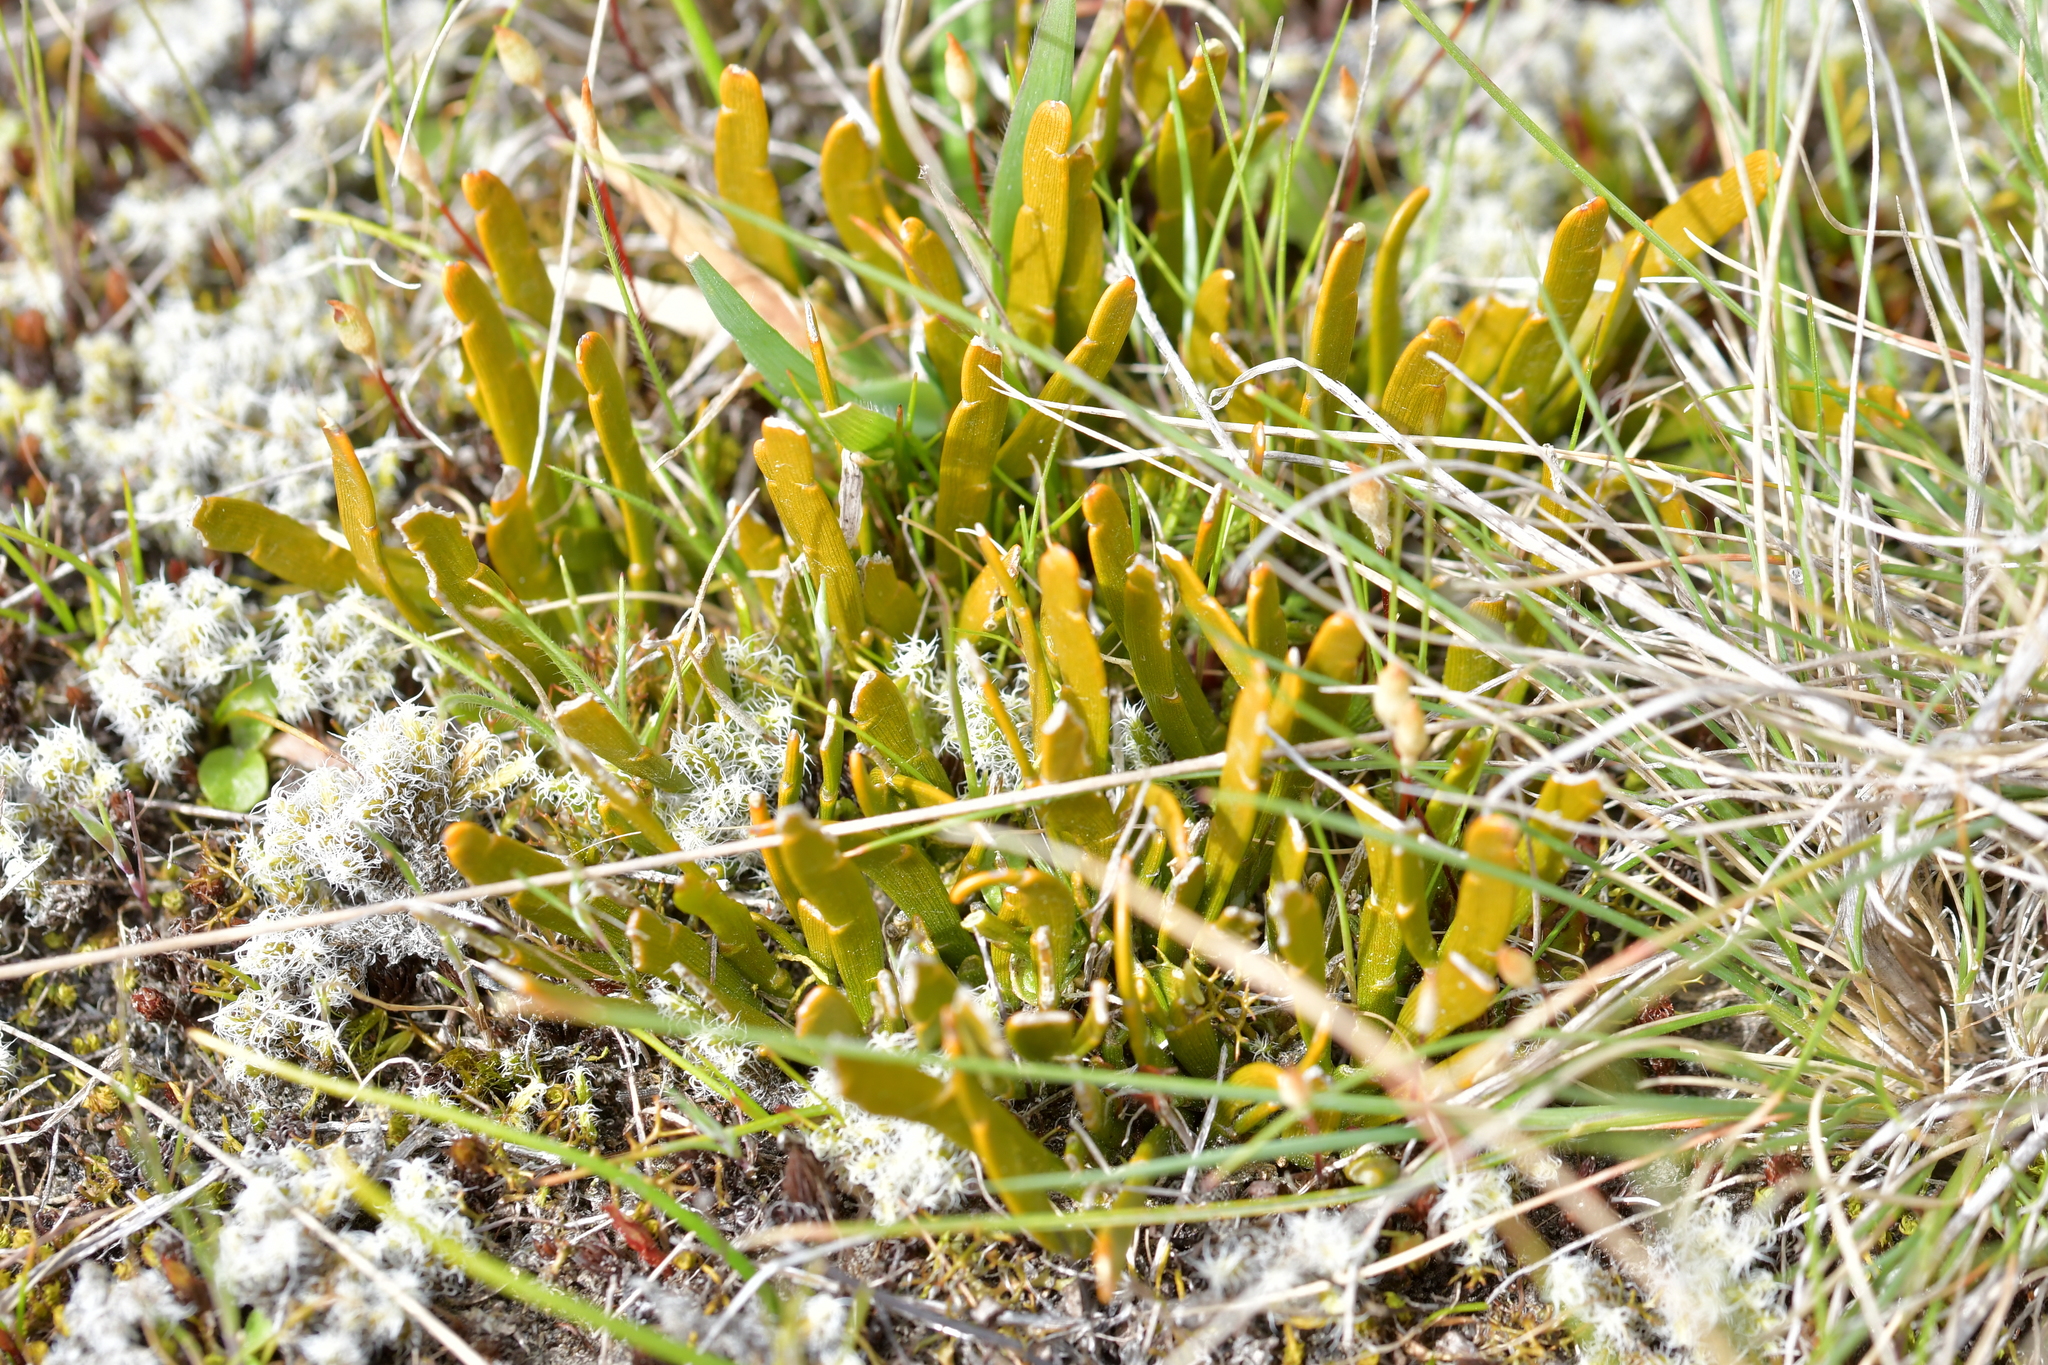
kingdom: Plantae
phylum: Tracheophyta
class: Magnoliopsida
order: Fabales
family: Fabaceae
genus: Carmichaelia
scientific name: Carmichaelia corrugata
